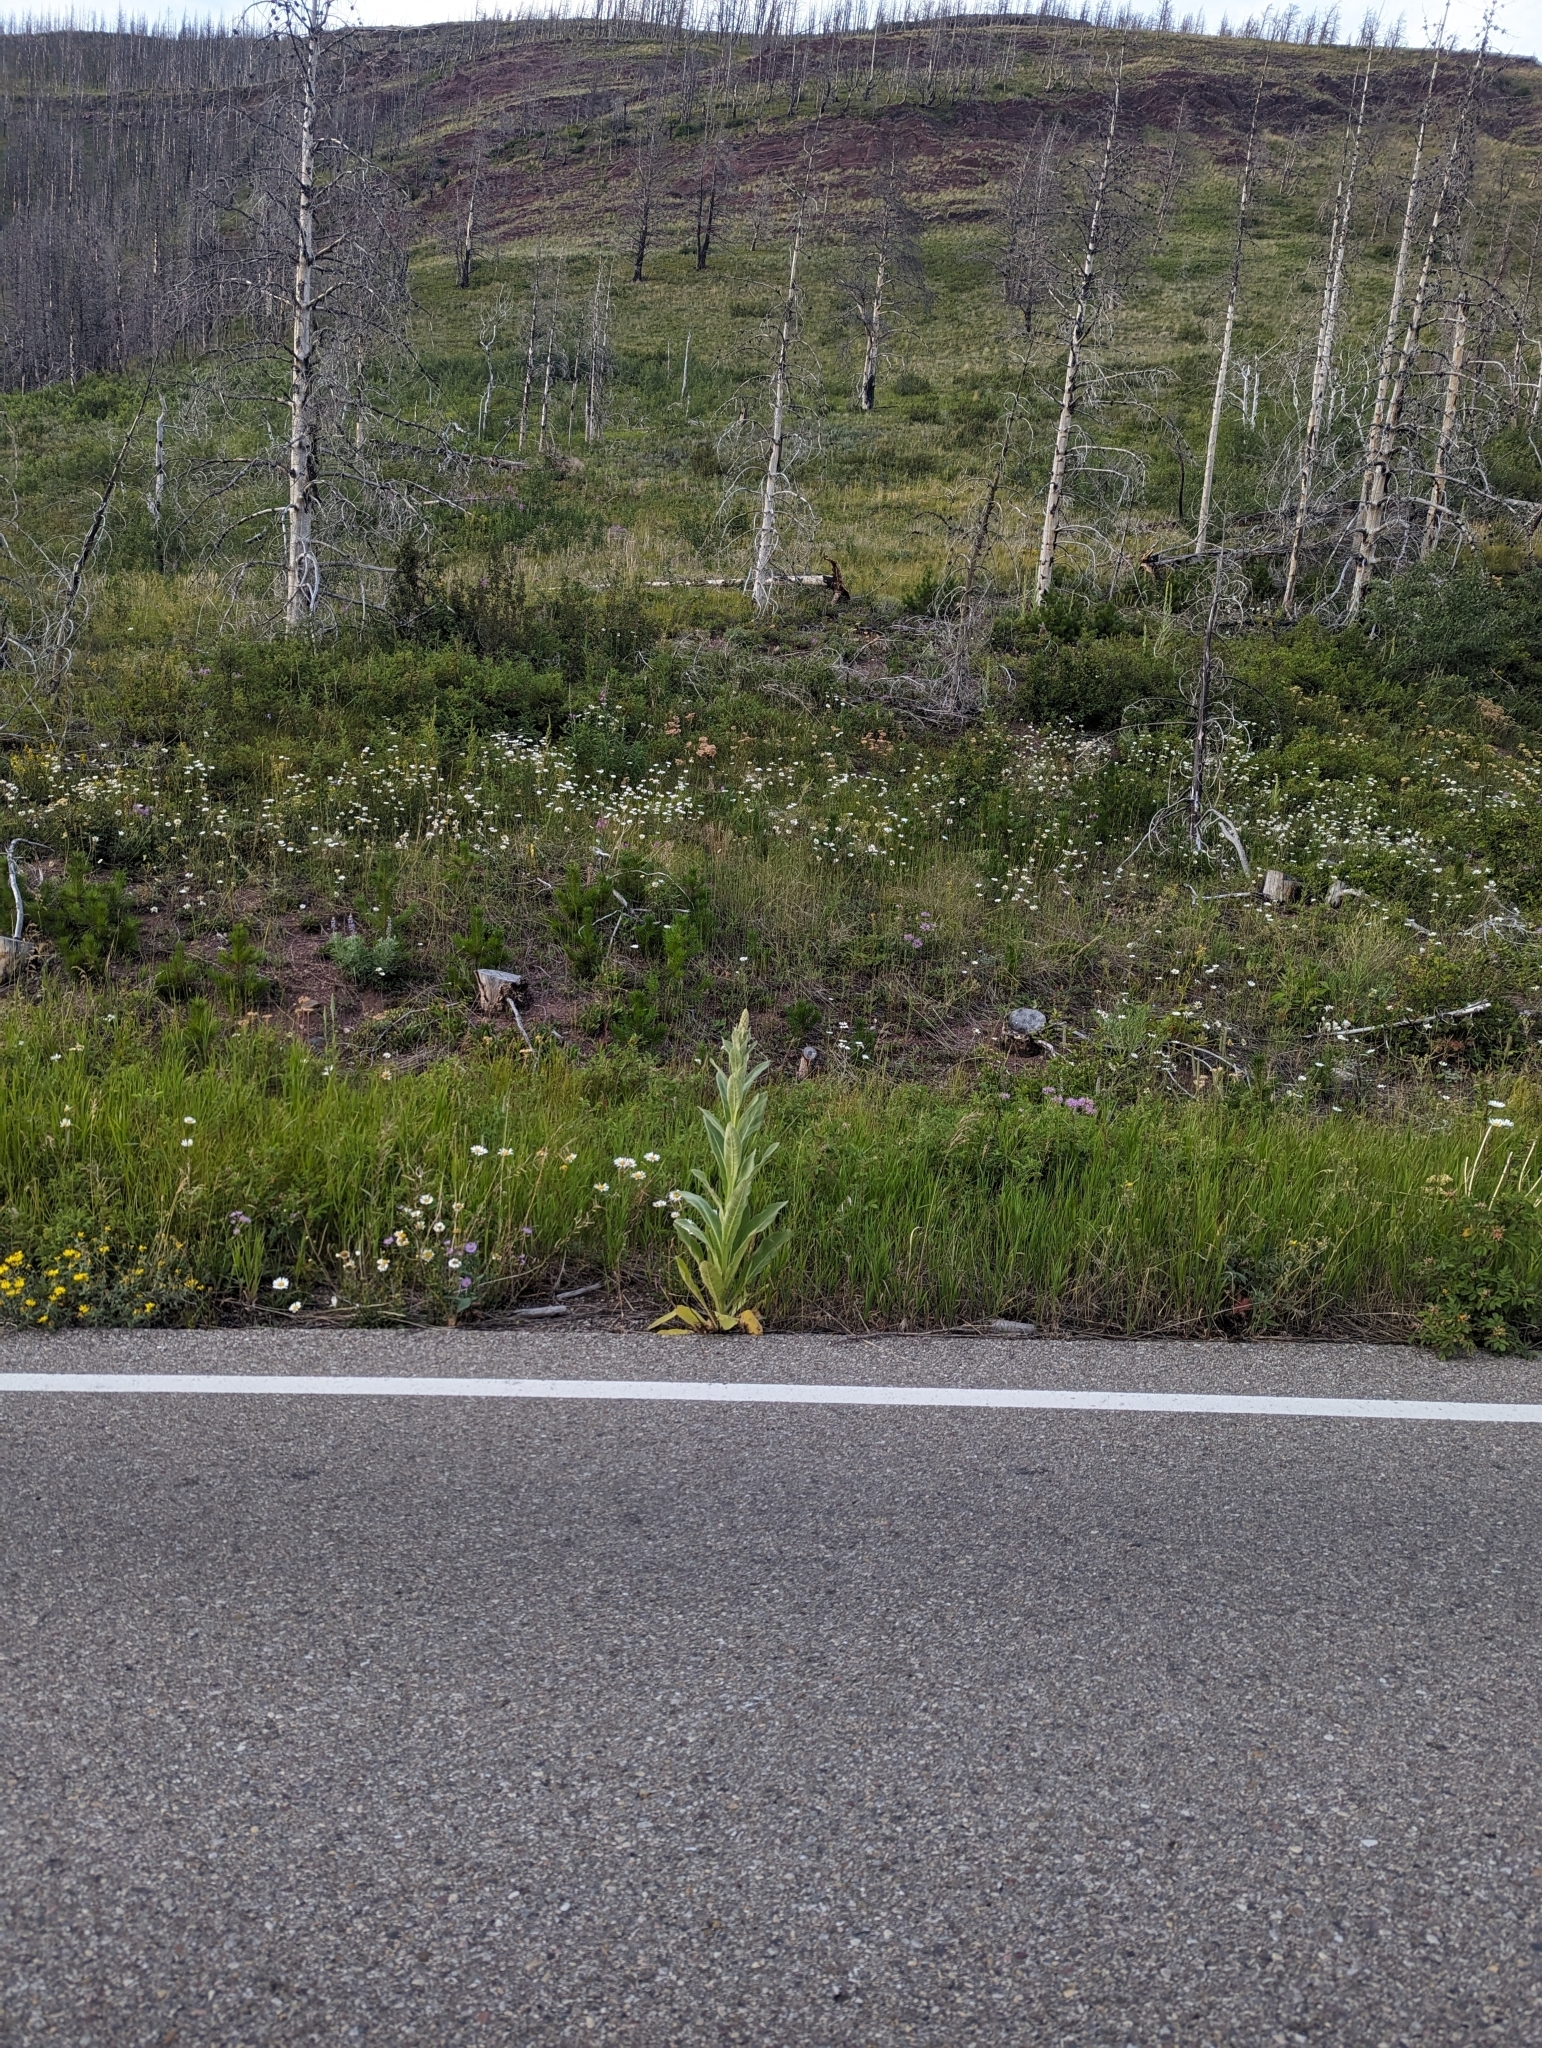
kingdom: Plantae
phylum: Tracheophyta
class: Magnoliopsida
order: Lamiales
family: Scrophulariaceae
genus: Verbascum
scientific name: Verbascum thapsus
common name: Common mullein
